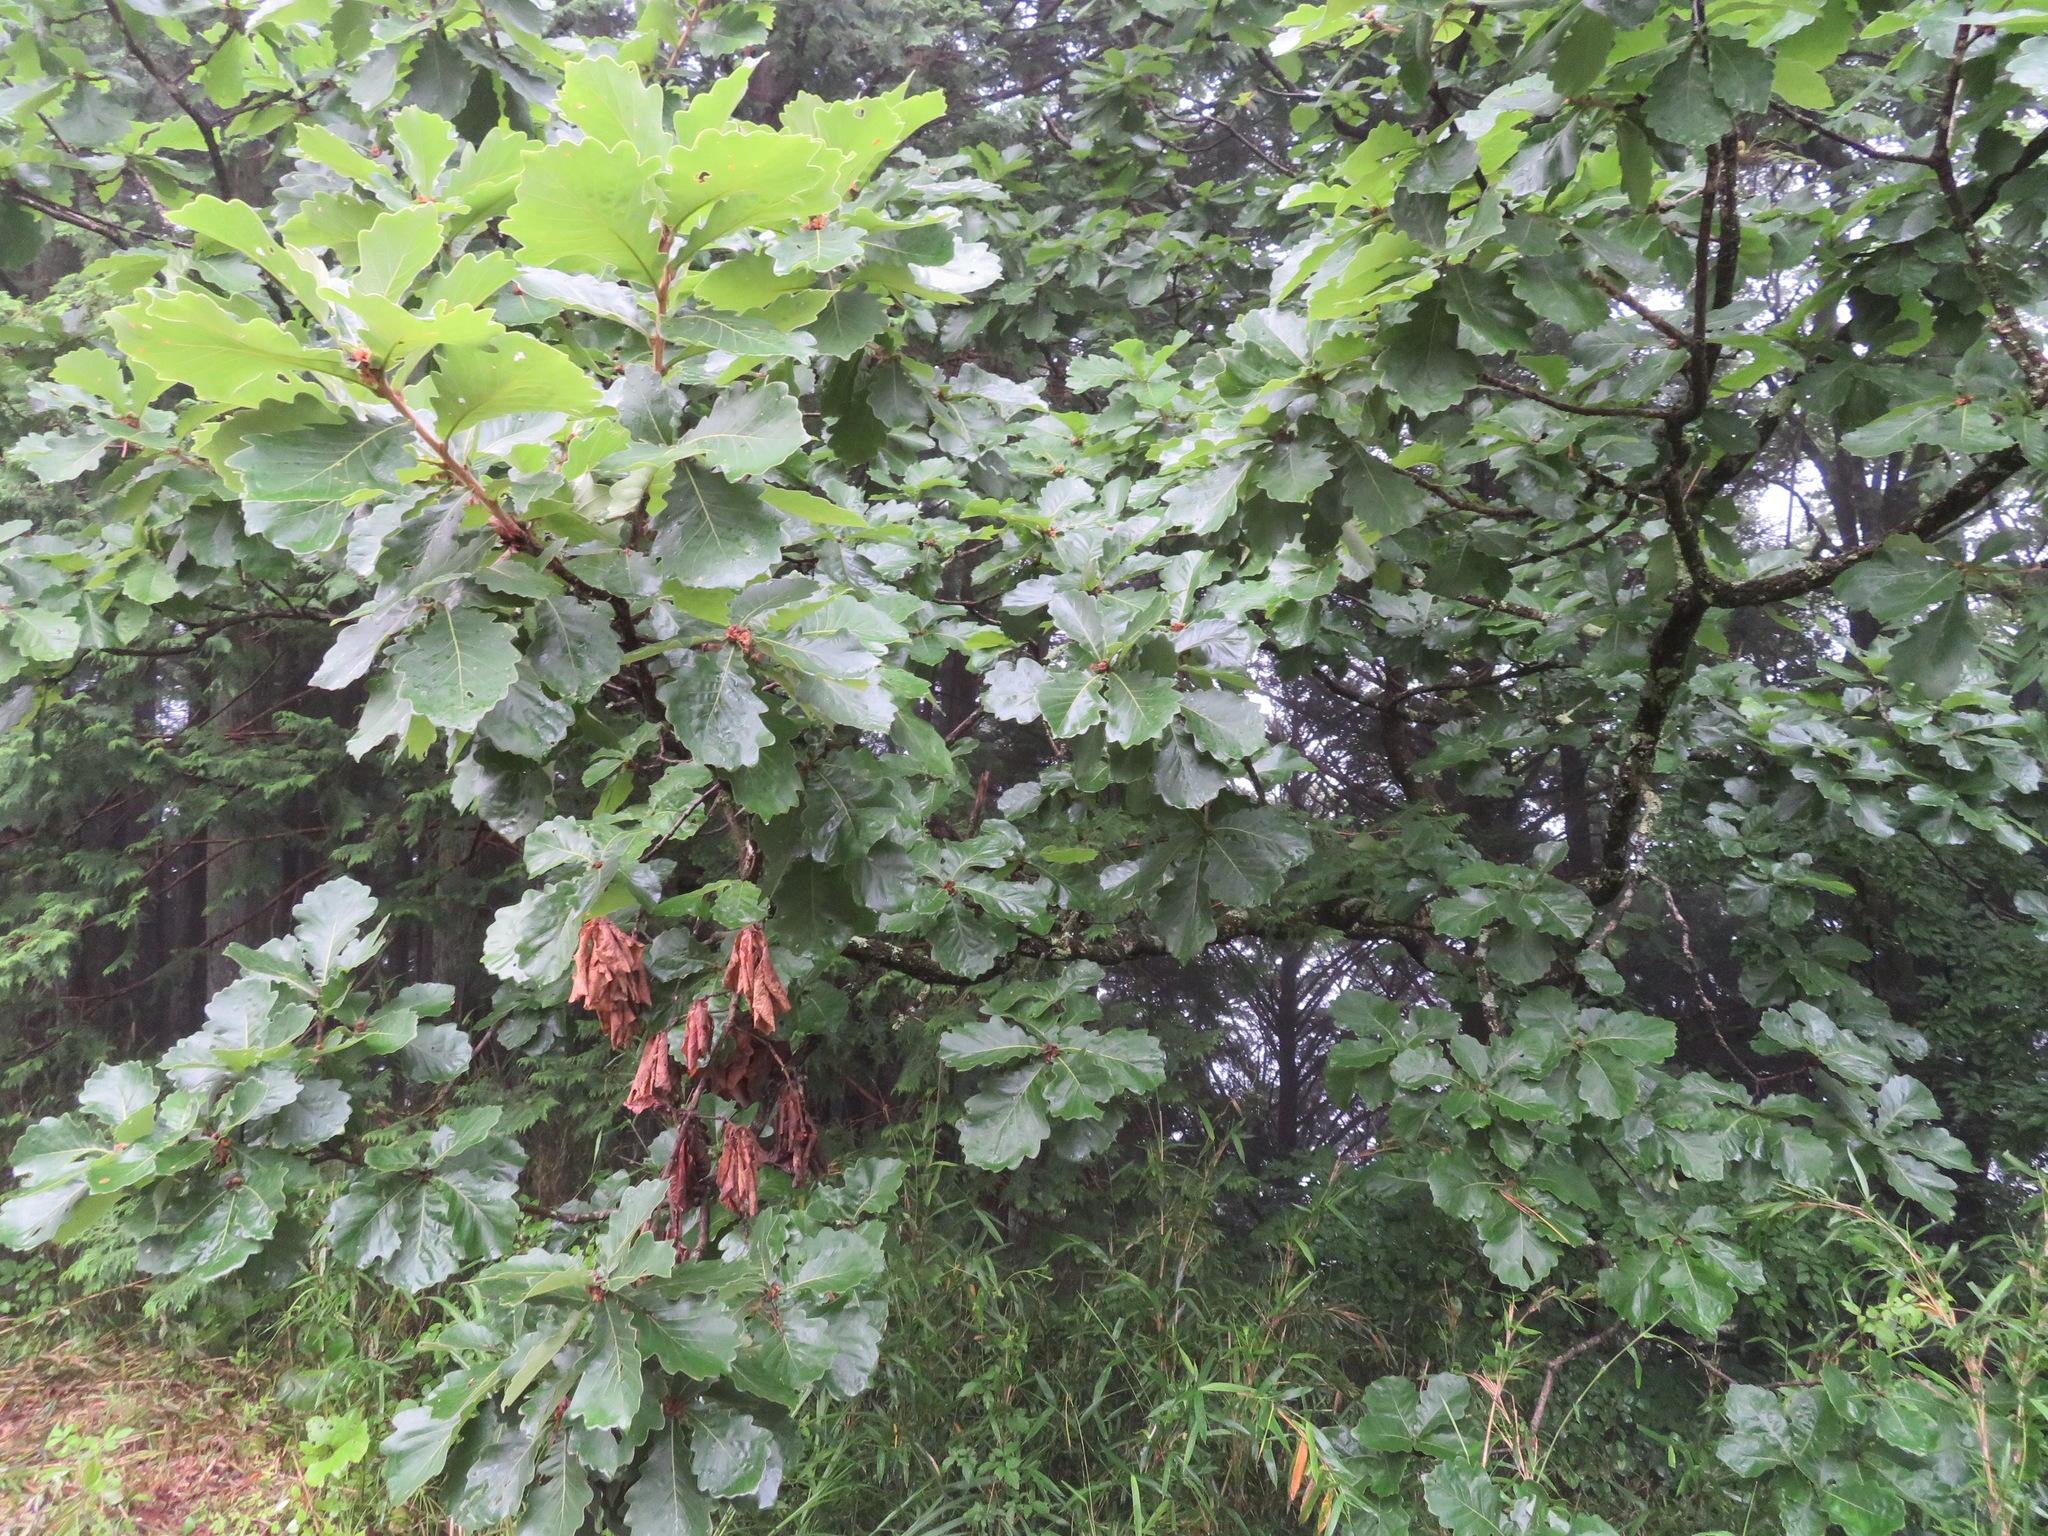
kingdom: Plantae
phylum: Tracheophyta
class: Magnoliopsida
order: Fagales
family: Fagaceae
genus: Quercus
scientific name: Quercus dentata
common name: Daimyo oak
